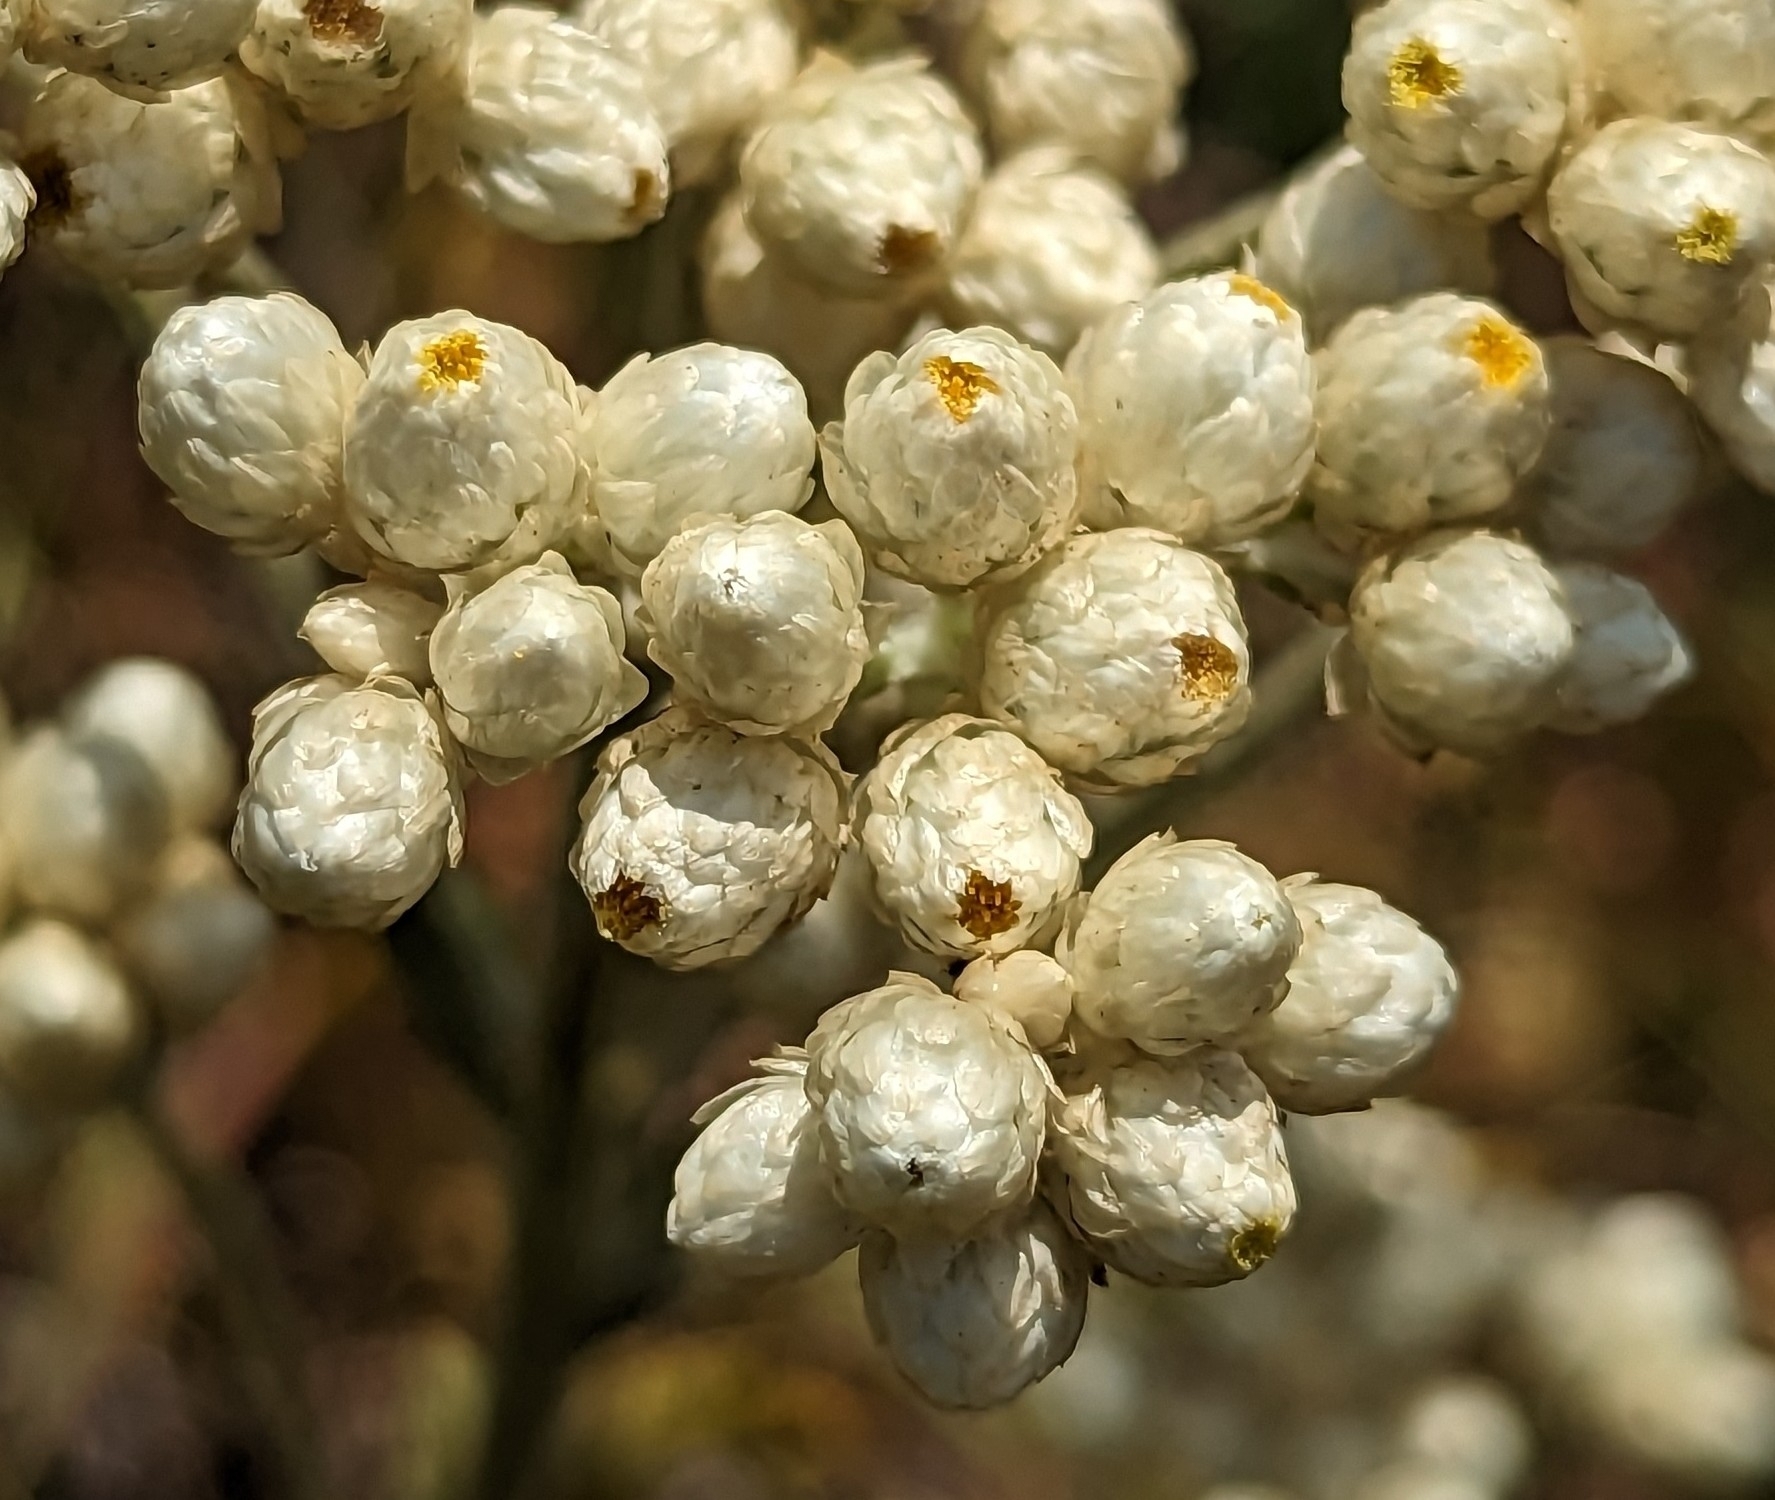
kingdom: Plantae
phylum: Tracheophyta
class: Magnoliopsida
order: Asterales
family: Asteraceae
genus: Pseudognaphalium
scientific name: Pseudognaphalium californicum
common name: California rabbit-tobacco
